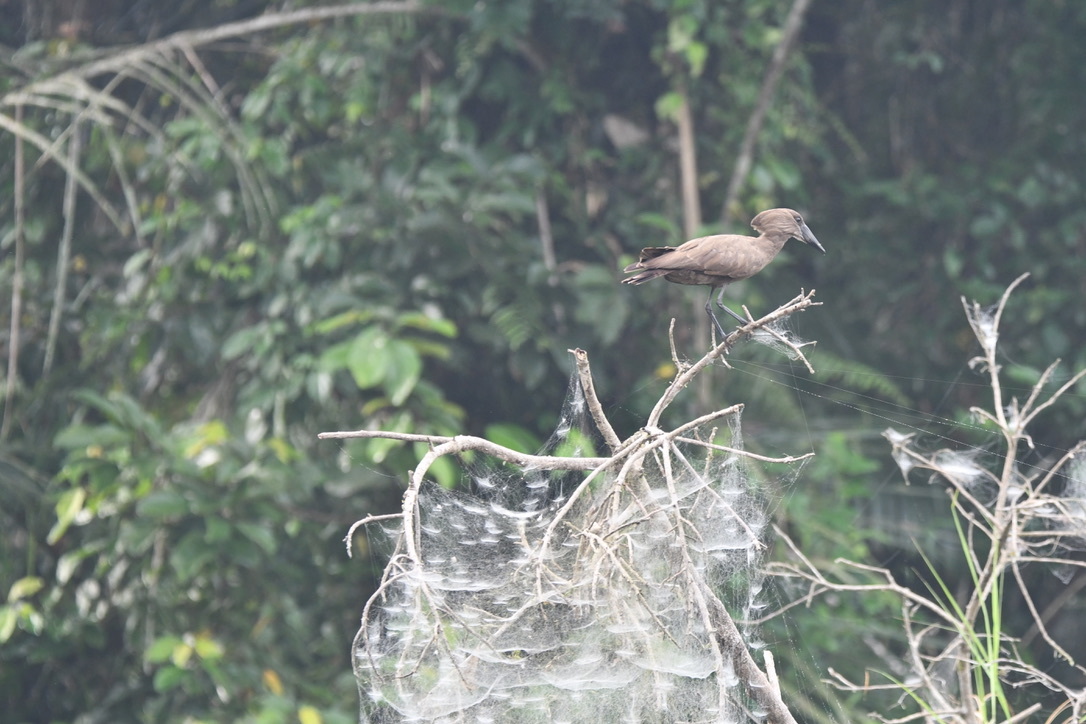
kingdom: Animalia
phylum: Chordata
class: Aves
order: Pelecaniformes
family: Scopidae
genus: Scopus
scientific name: Scopus umbretta
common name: Hamerkop
